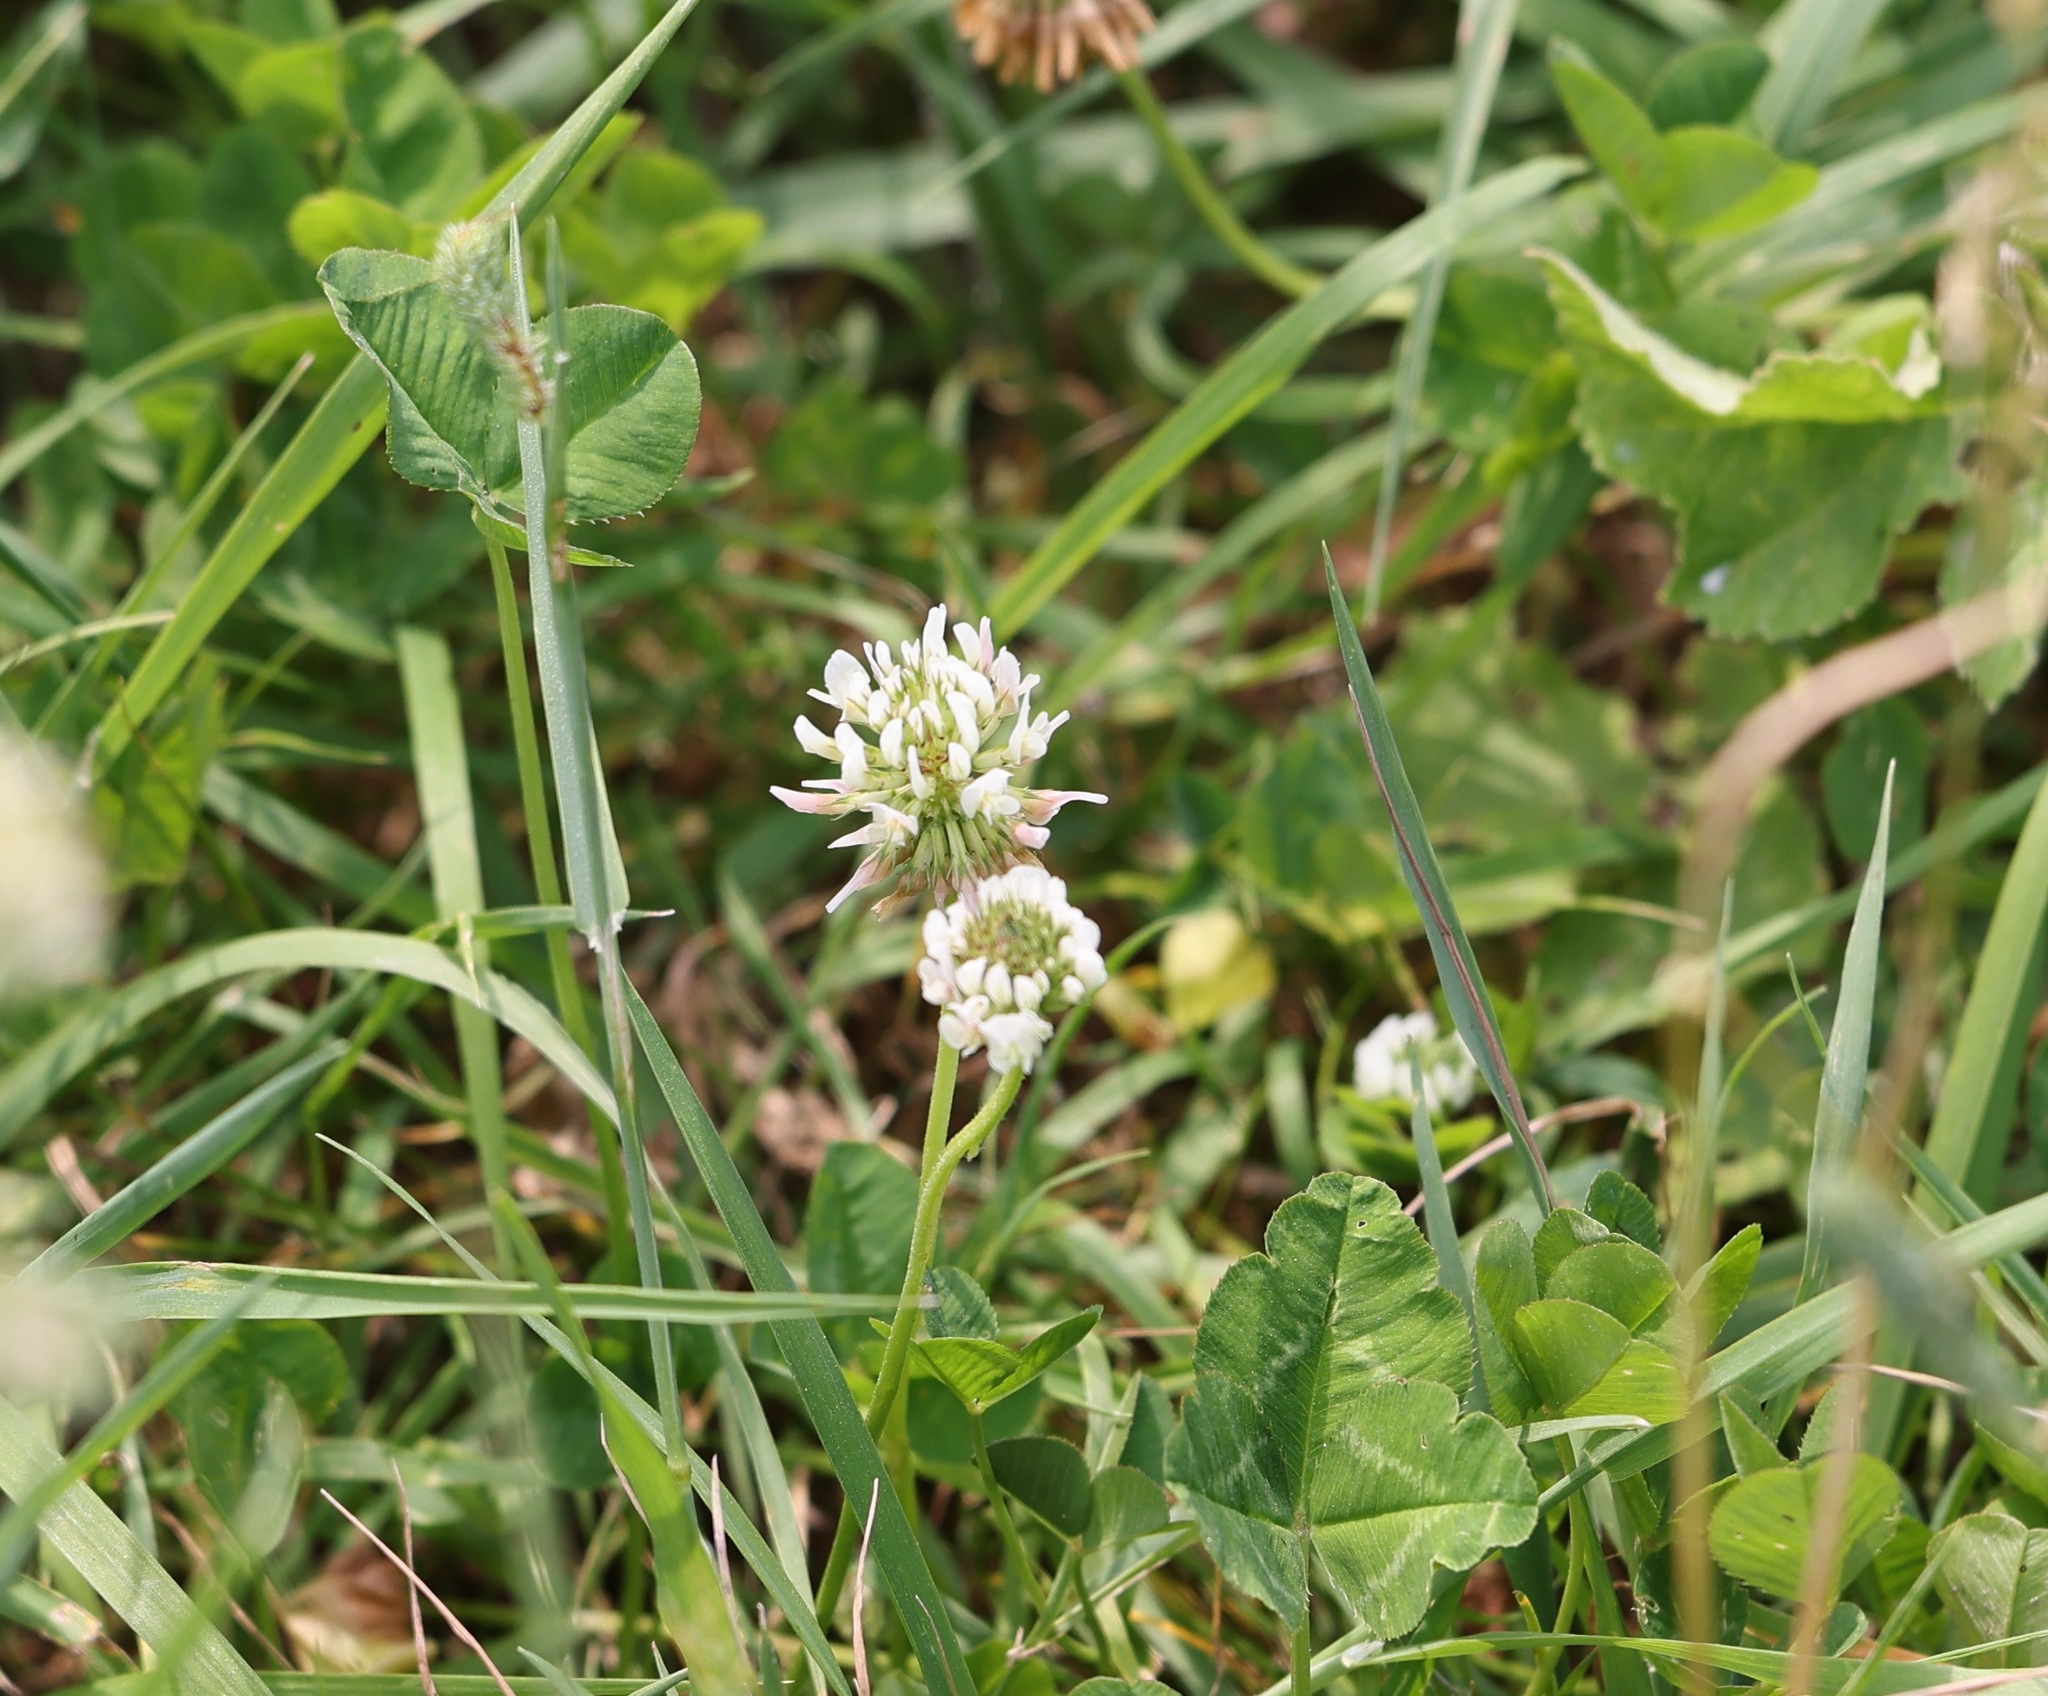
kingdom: Plantae
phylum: Tracheophyta
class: Magnoliopsida
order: Fabales
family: Fabaceae
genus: Trifolium
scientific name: Trifolium repens
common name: White clover
